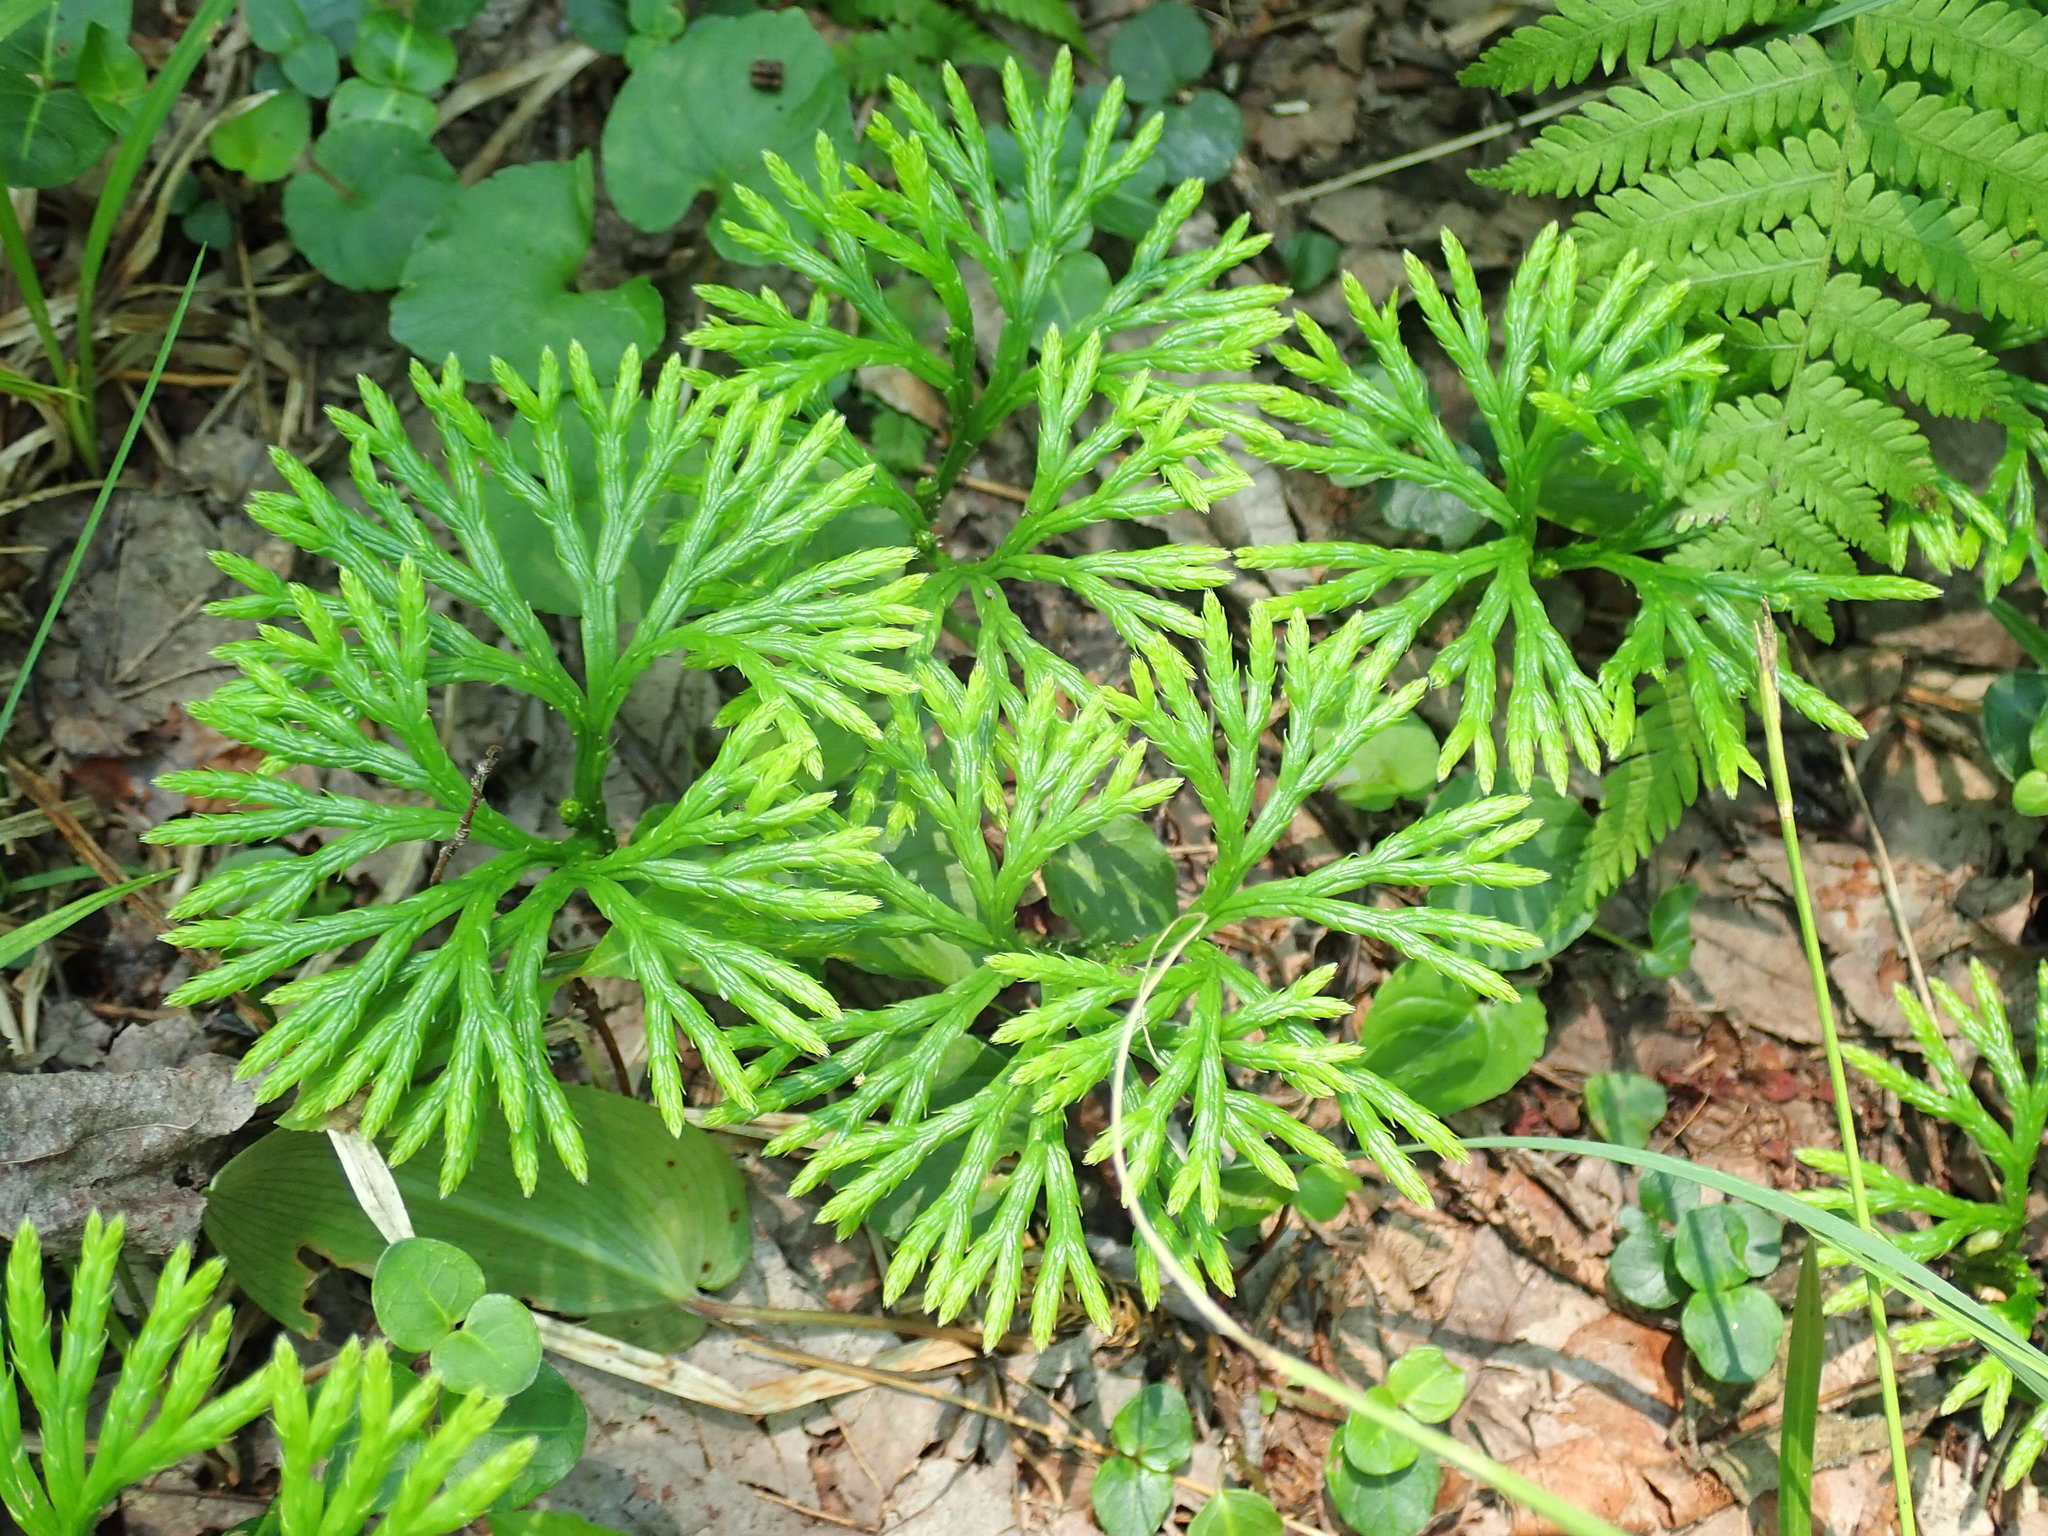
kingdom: Plantae
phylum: Tracheophyta
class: Lycopodiopsida
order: Lycopodiales
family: Lycopodiaceae
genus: Diphasiastrum
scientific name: Diphasiastrum digitatum
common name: Southern running-pine
